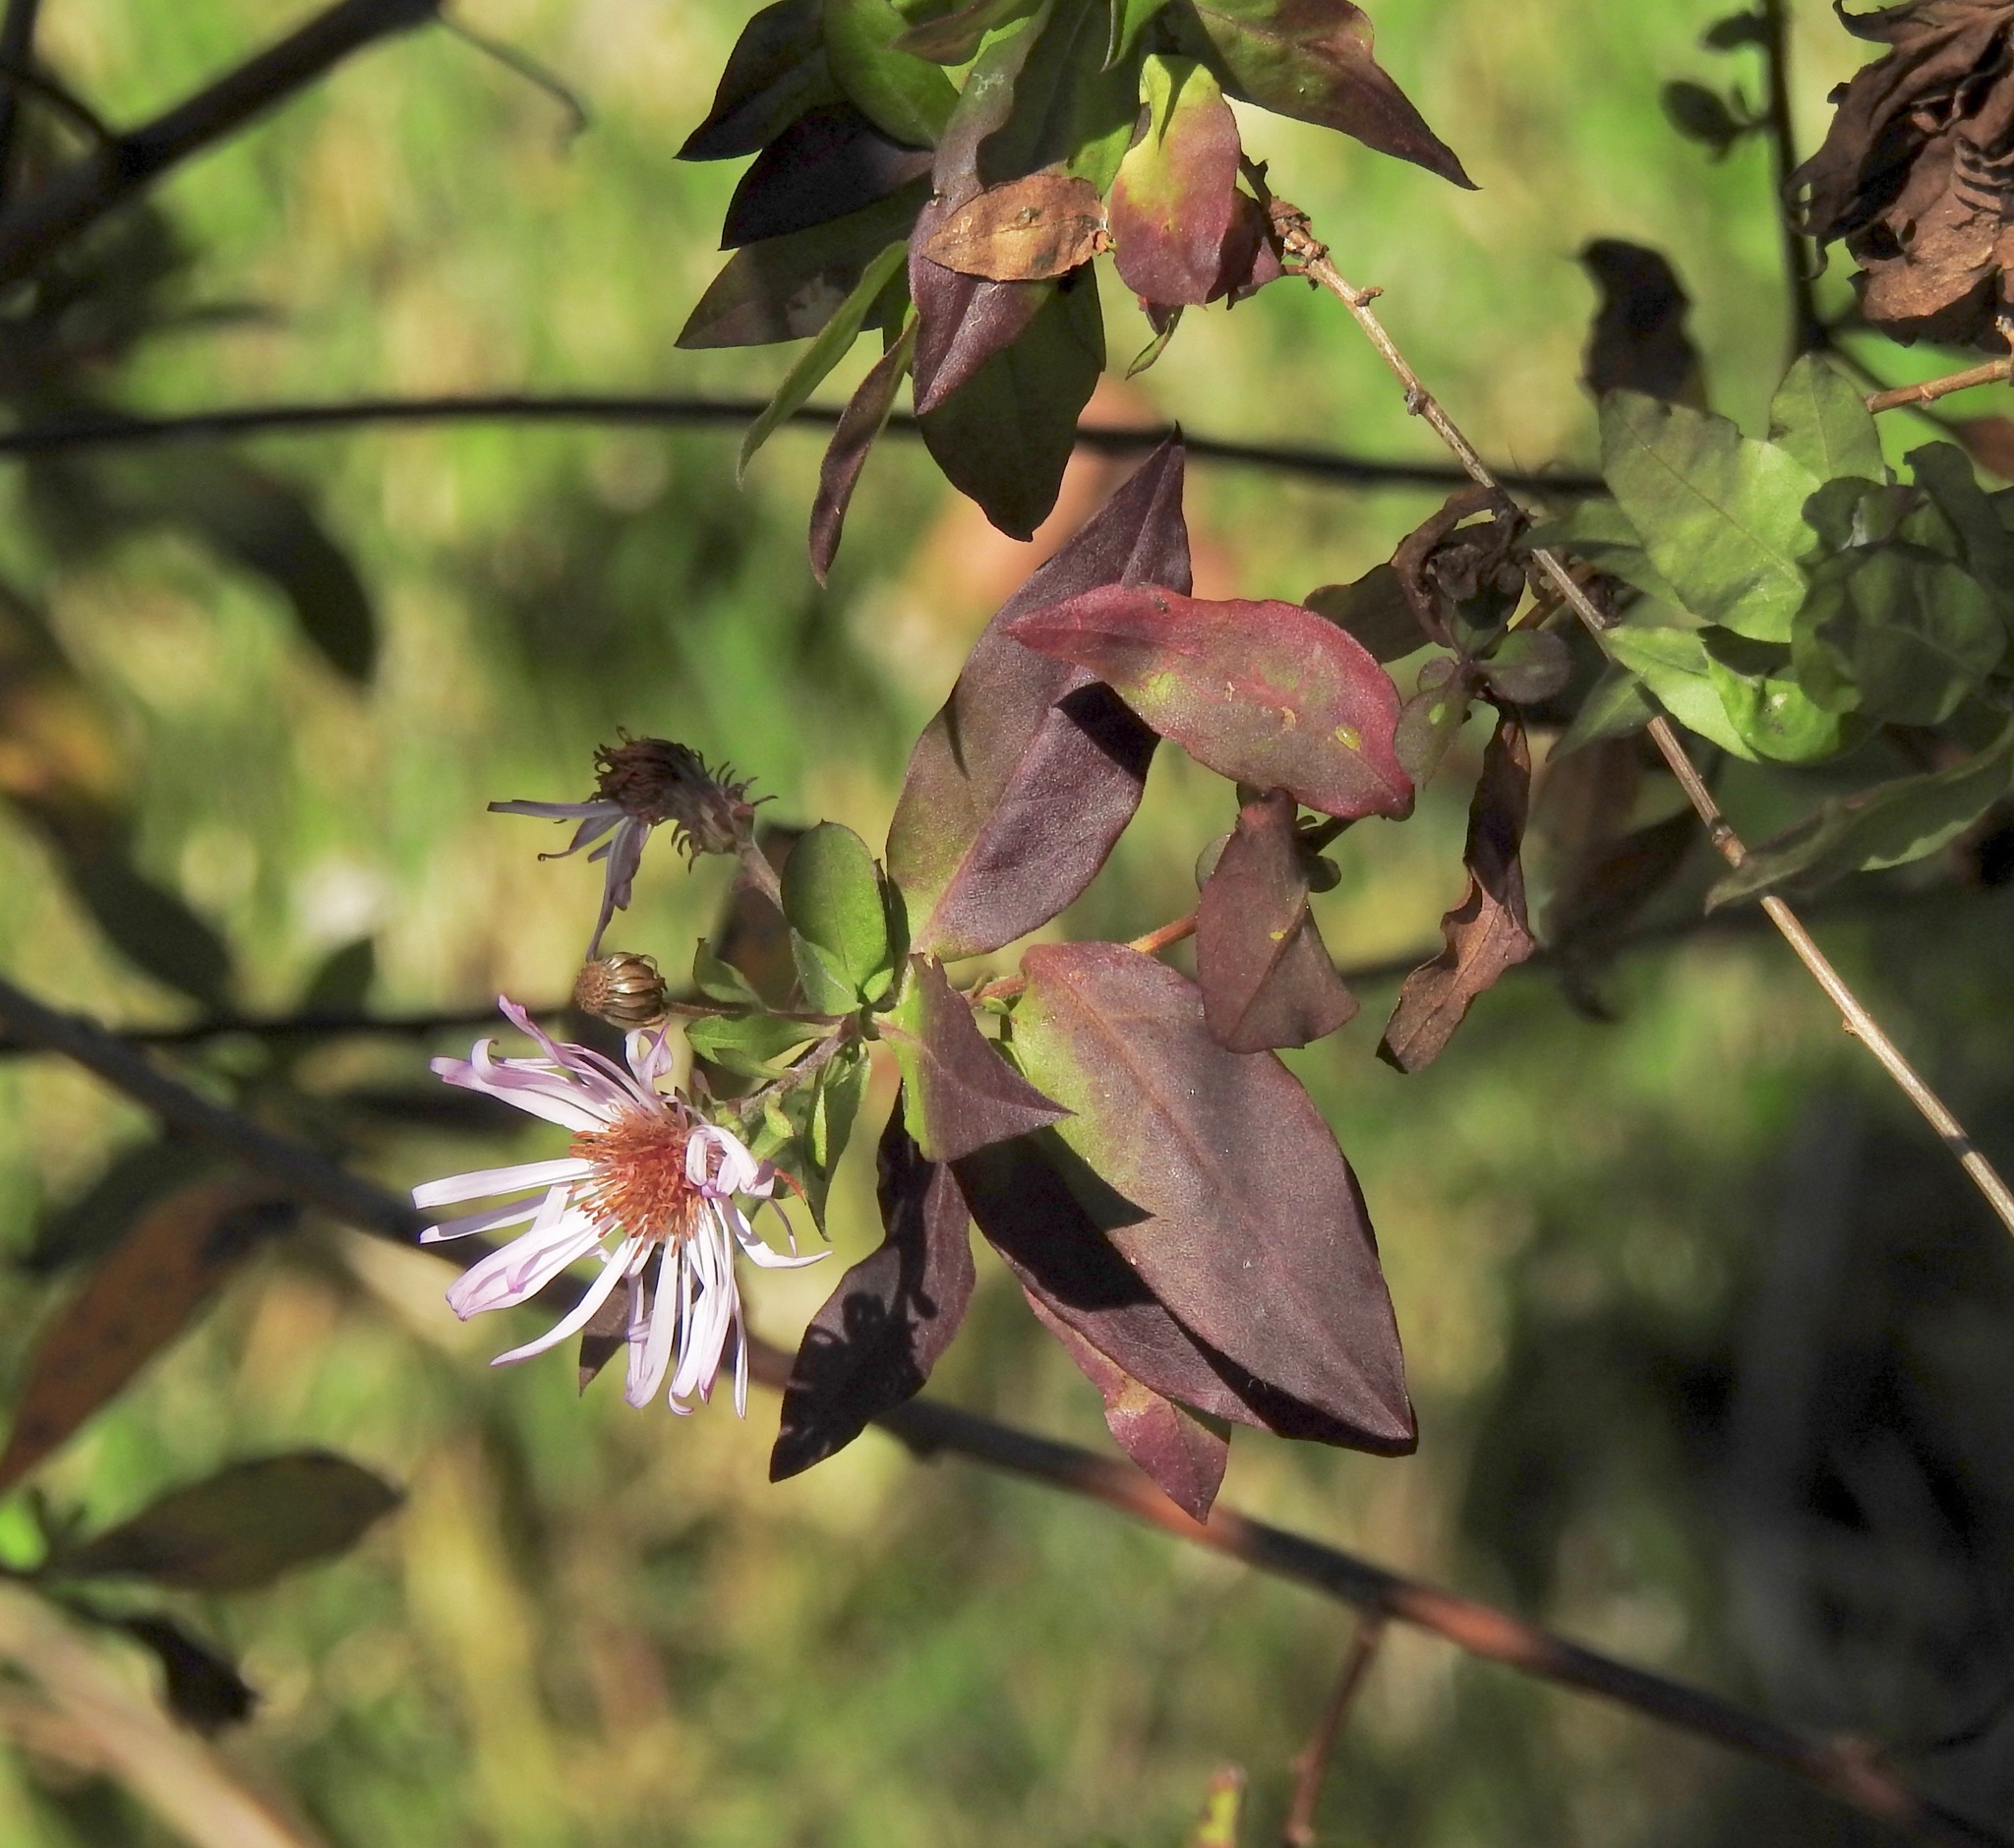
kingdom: Plantae
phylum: Tracheophyta
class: Magnoliopsida
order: Asterales
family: Asteraceae
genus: Ampelaster
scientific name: Ampelaster carolinianus
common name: Climbing aster
